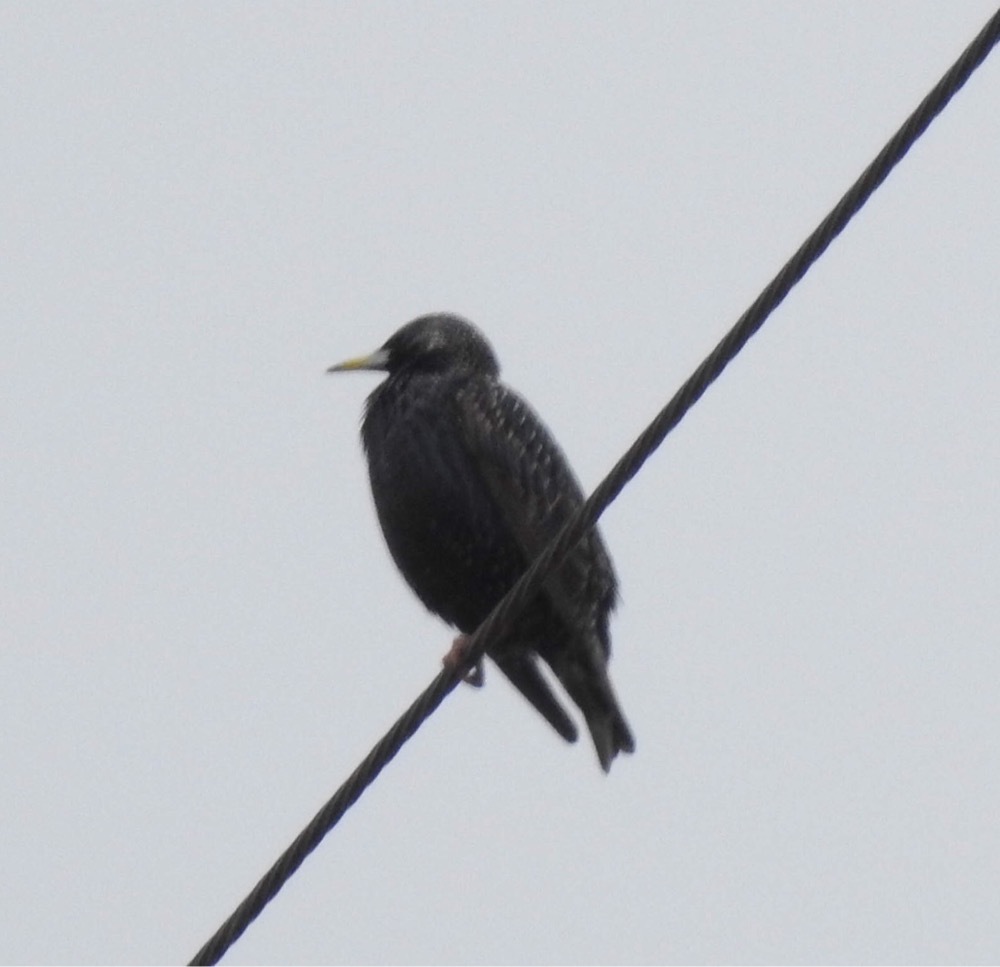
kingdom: Animalia
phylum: Chordata
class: Aves
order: Passeriformes
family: Sturnidae
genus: Sturnus
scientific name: Sturnus vulgaris
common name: Common starling
